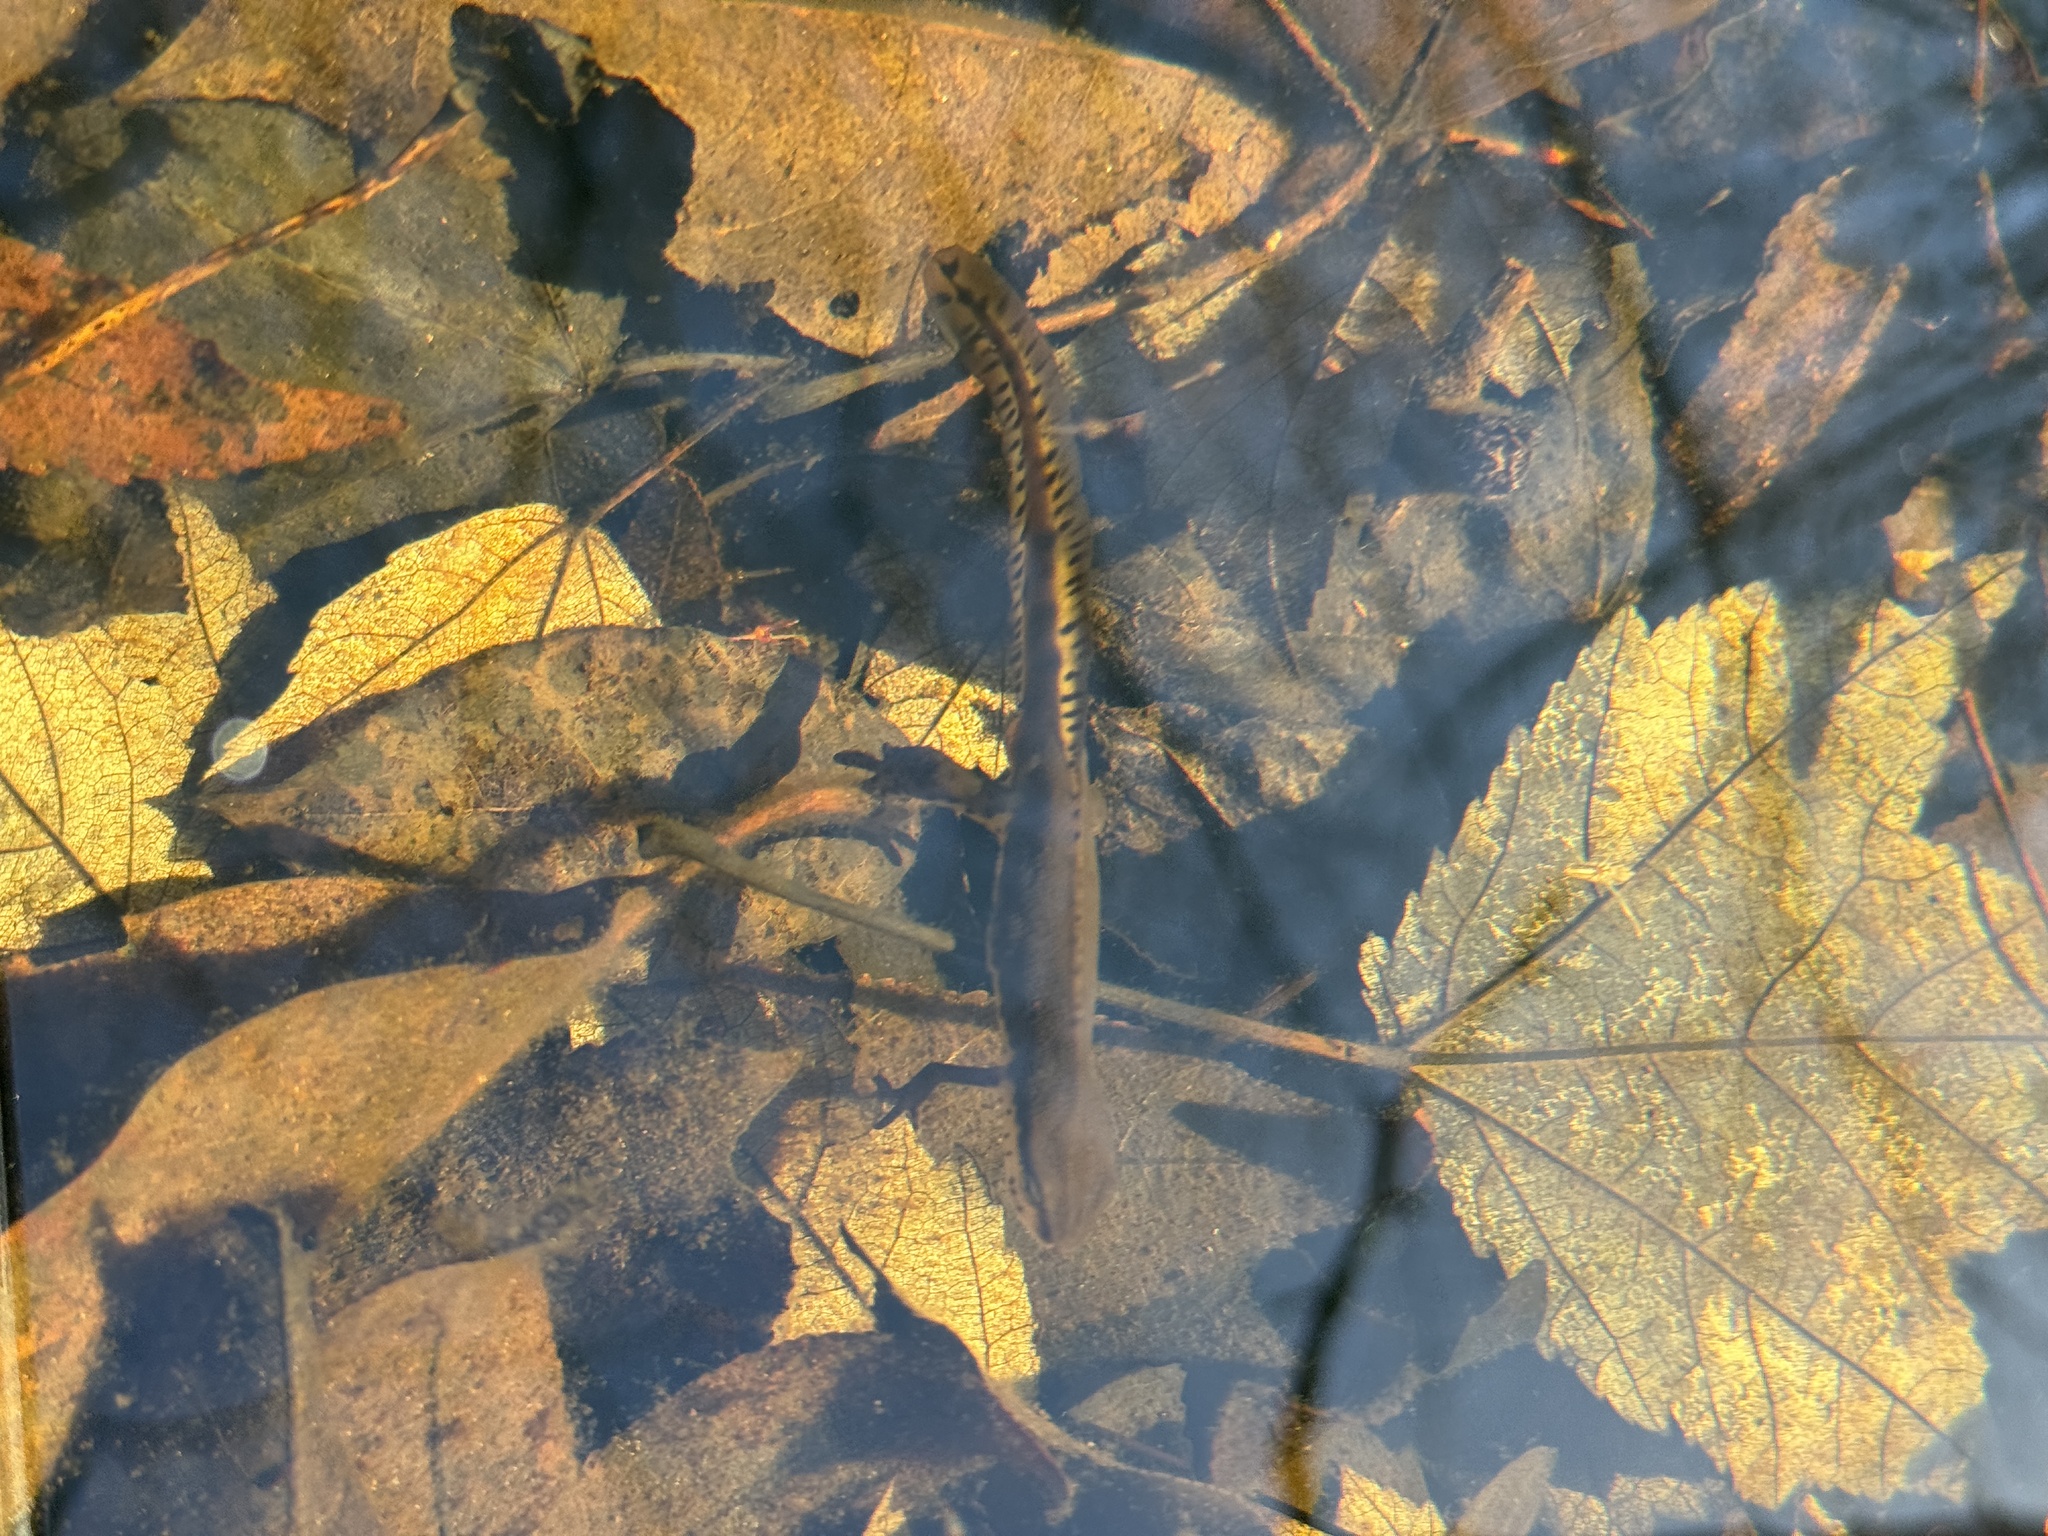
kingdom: Animalia
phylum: Chordata
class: Amphibia
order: Caudata
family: Salamandridae
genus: Notophthalmus
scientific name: Notophthalmus viridescens
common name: Eastern newt
